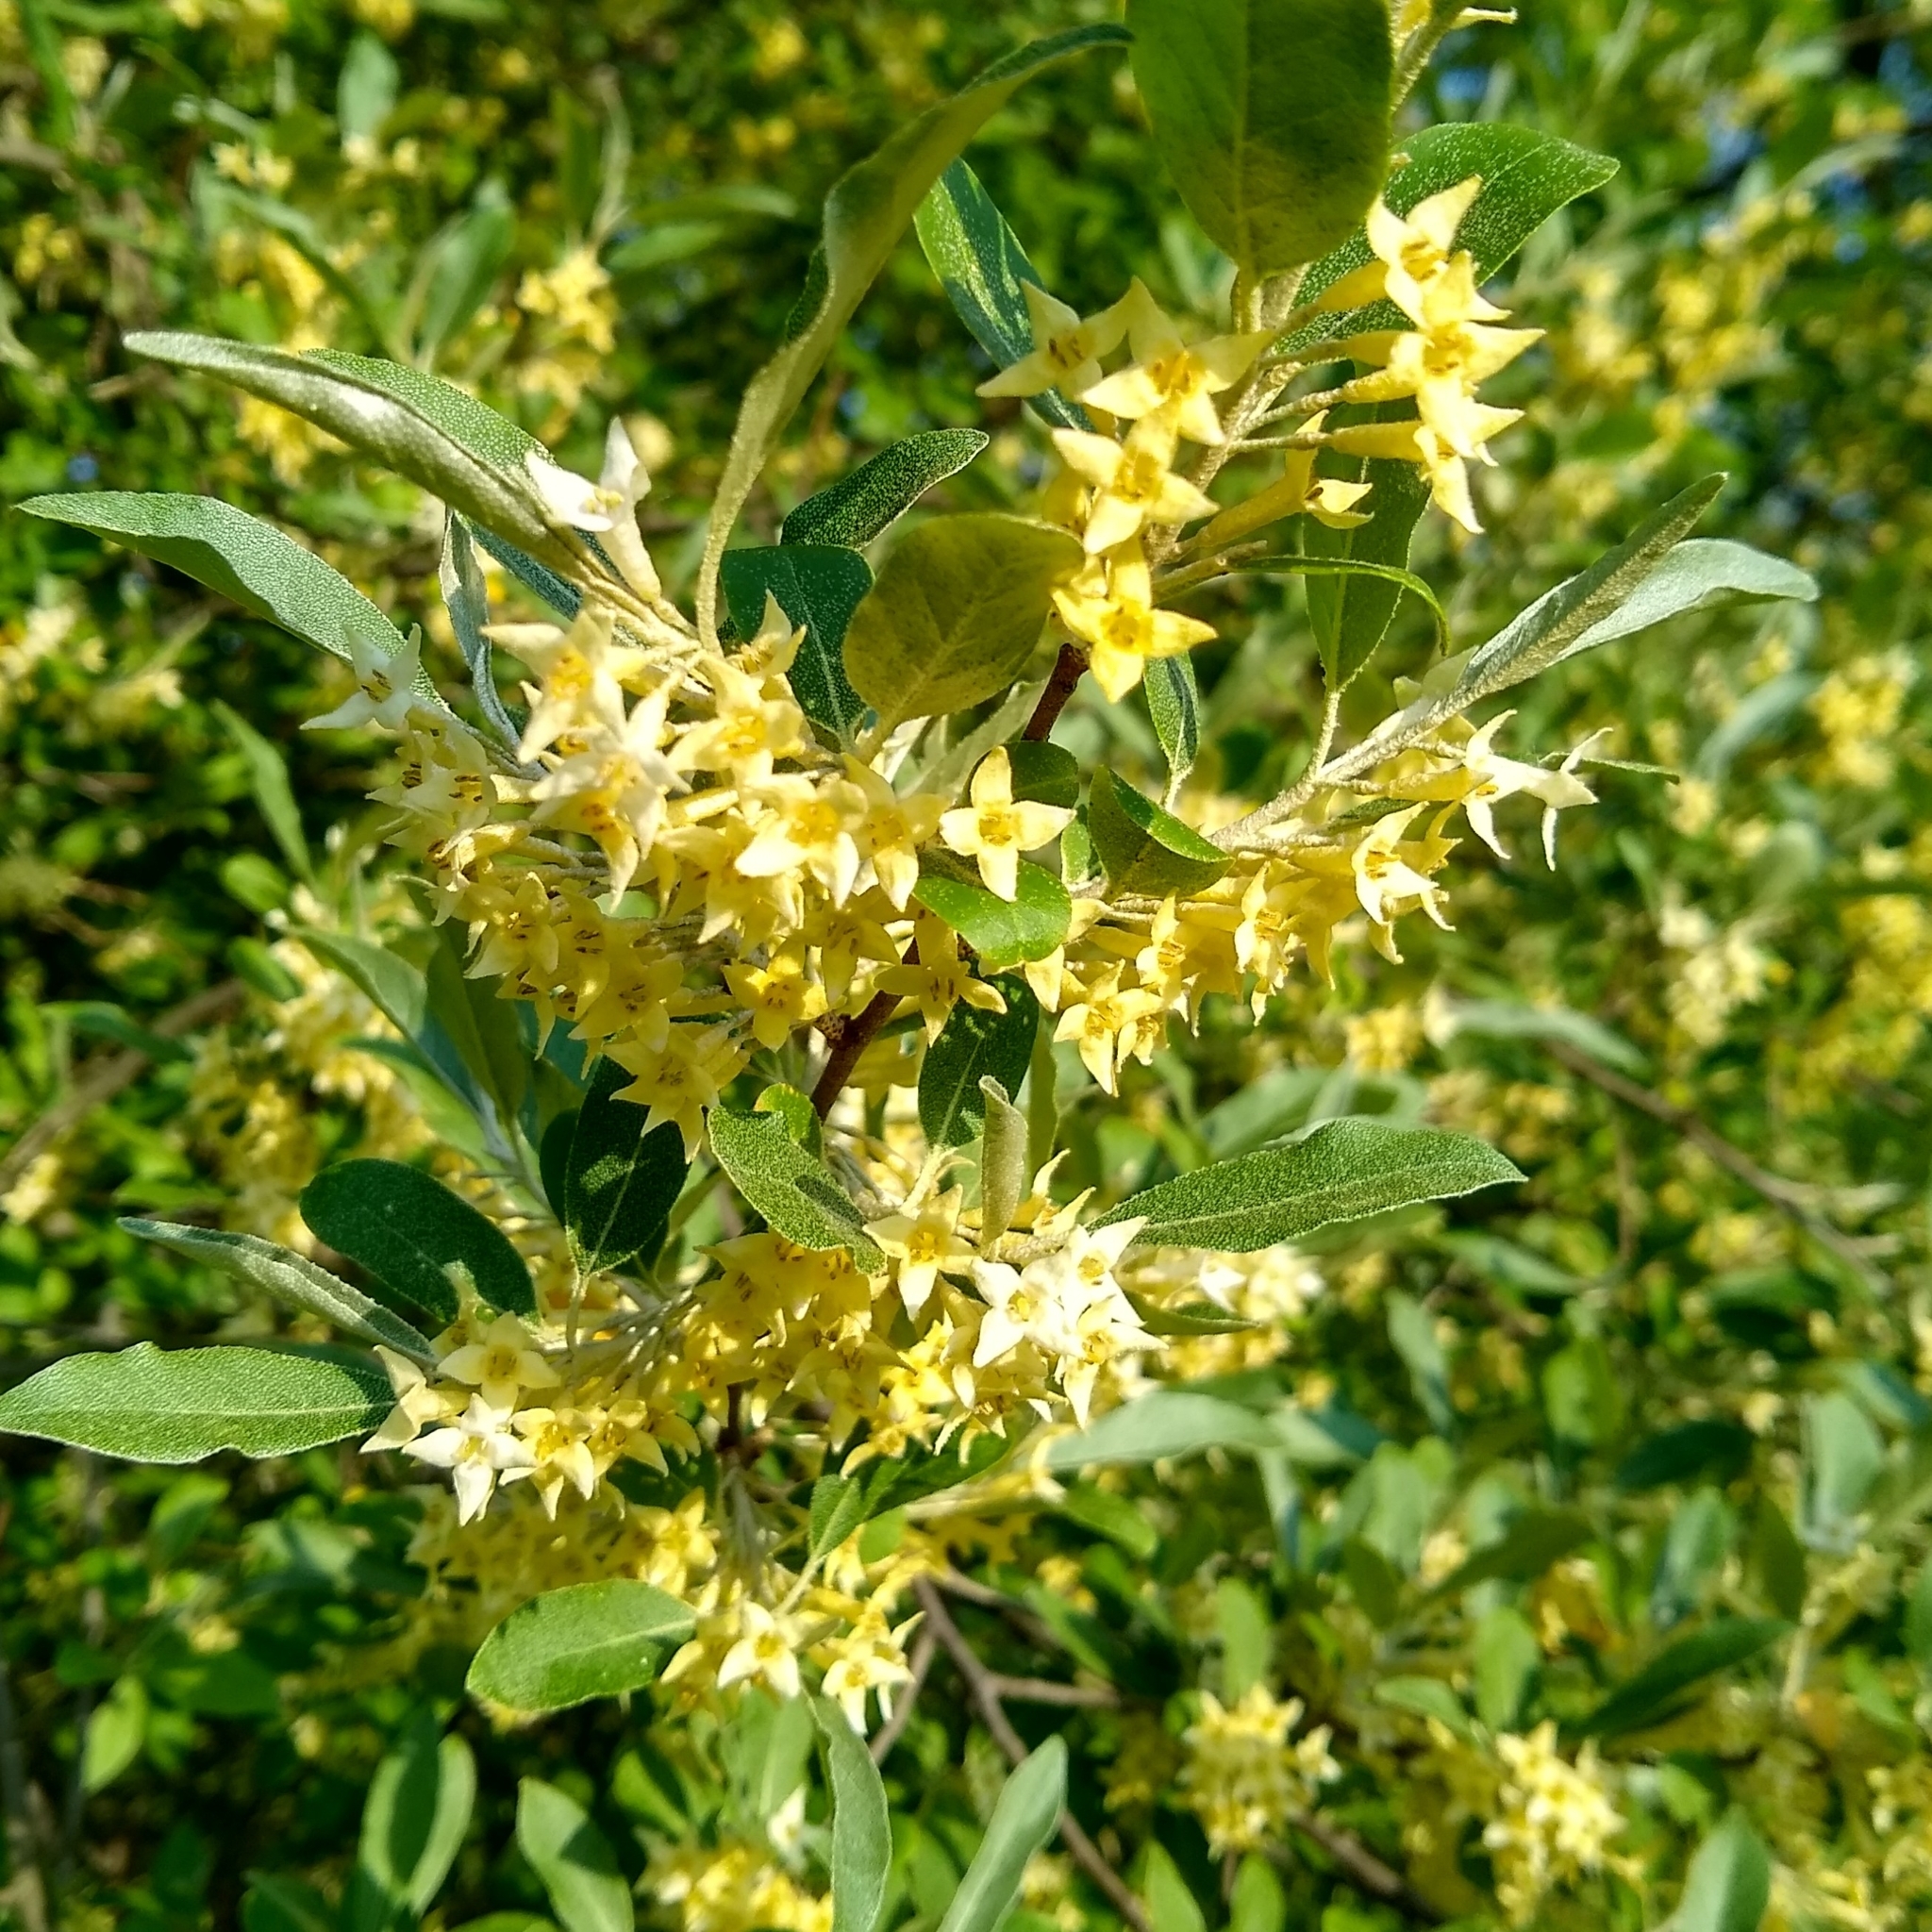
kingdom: Plantae
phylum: Tracheophyta
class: Magnoliopsida
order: Rosales
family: Elaeagnaceae
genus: Elaeagnus
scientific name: Elaeagnus umbellata
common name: Autumn olive
